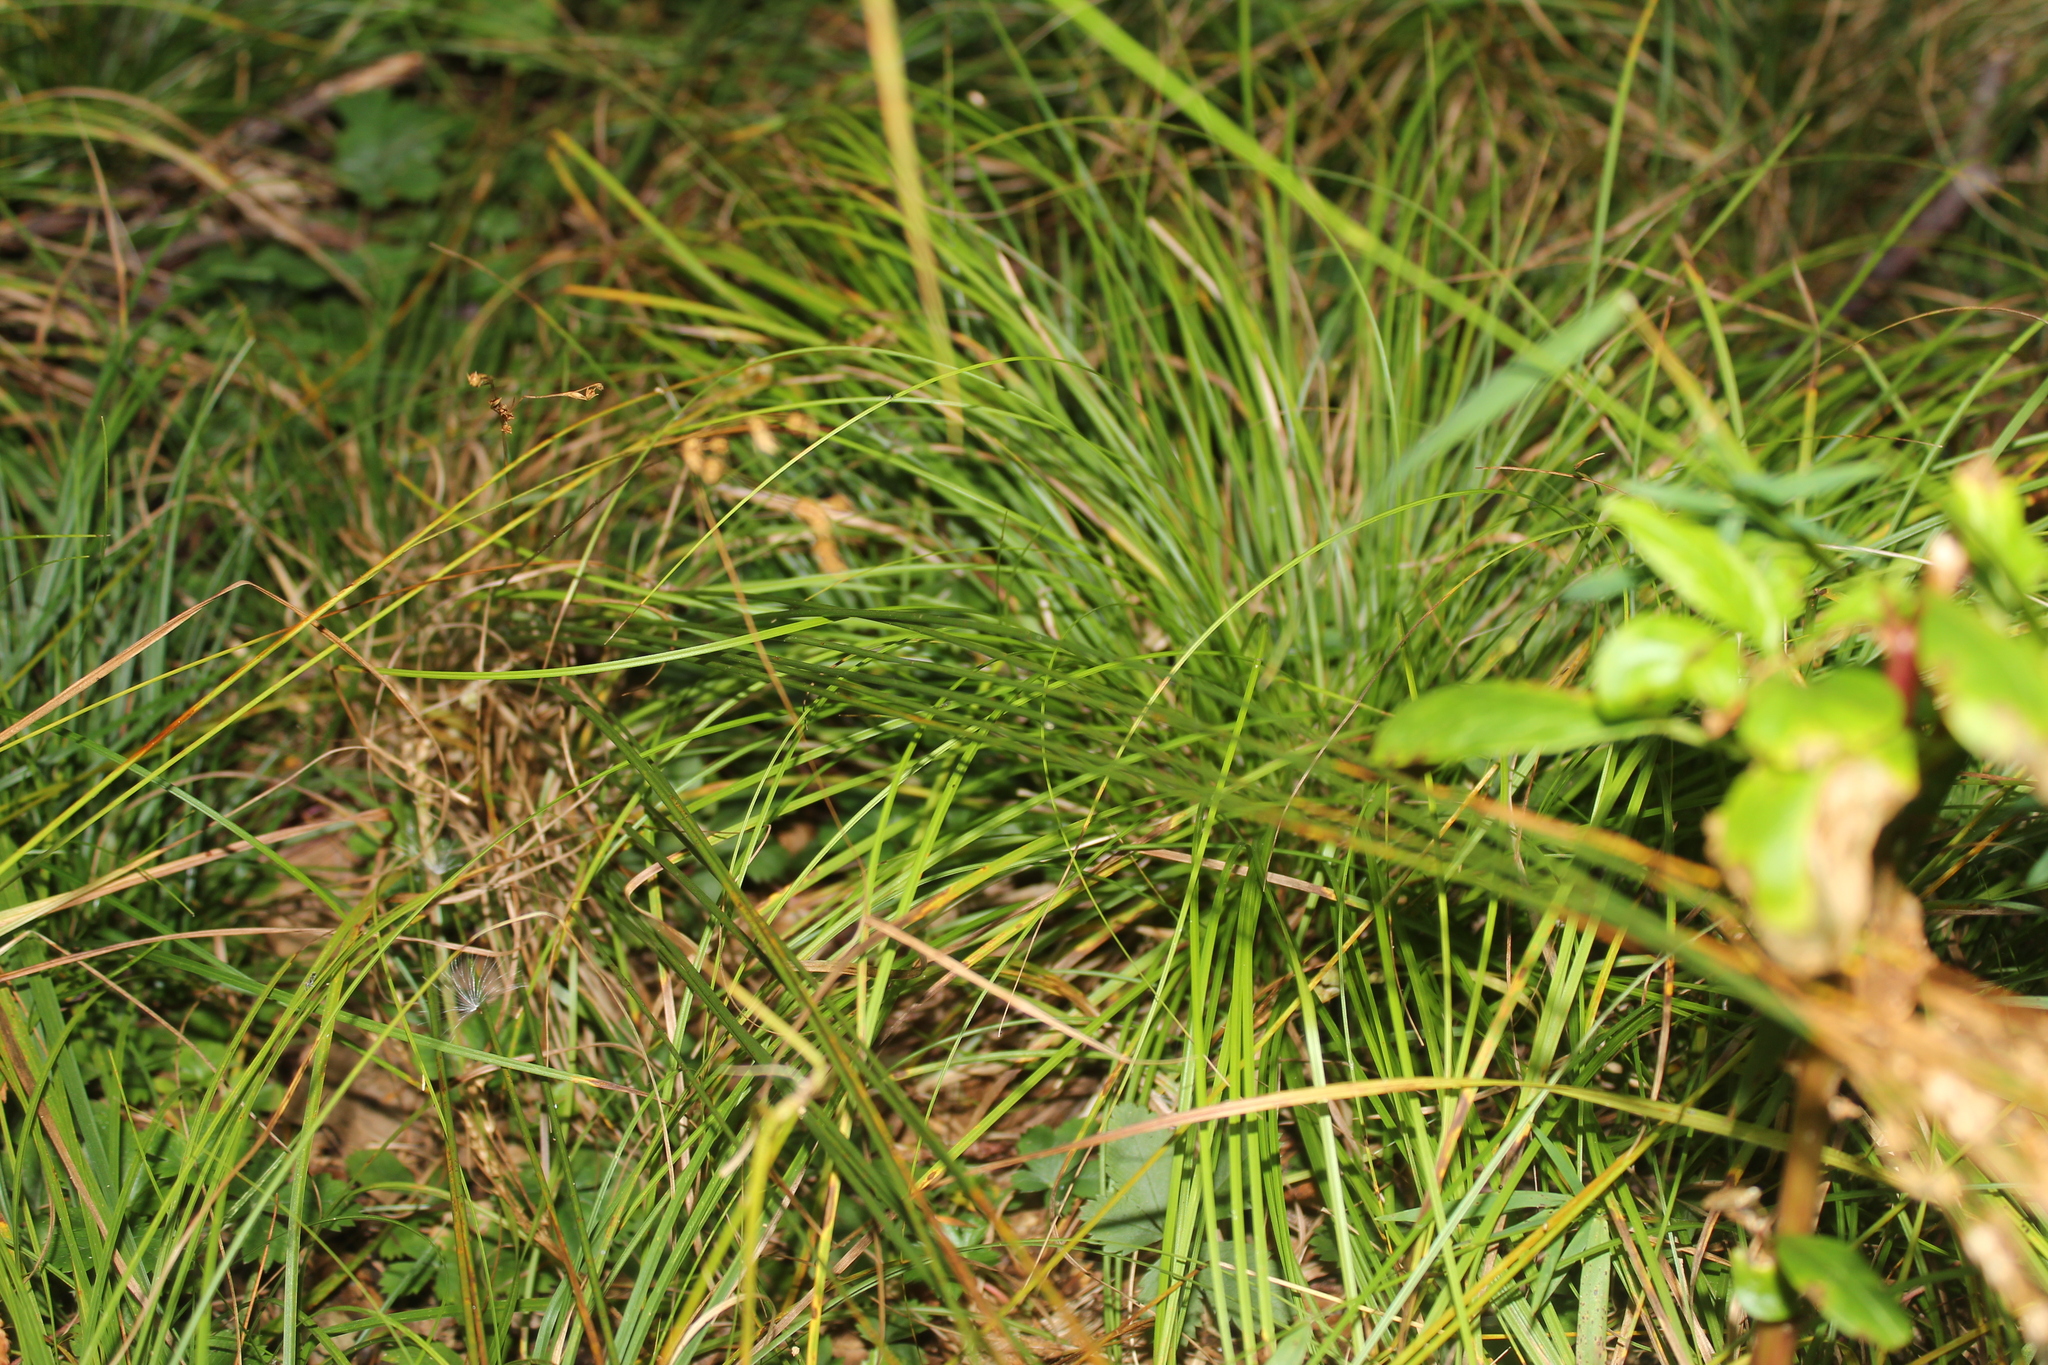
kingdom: Plantae
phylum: Tracheophyta
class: Liliopsida
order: Poales
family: Juncaceae
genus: Juncus
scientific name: Juncus secundus
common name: Lopsided rush
